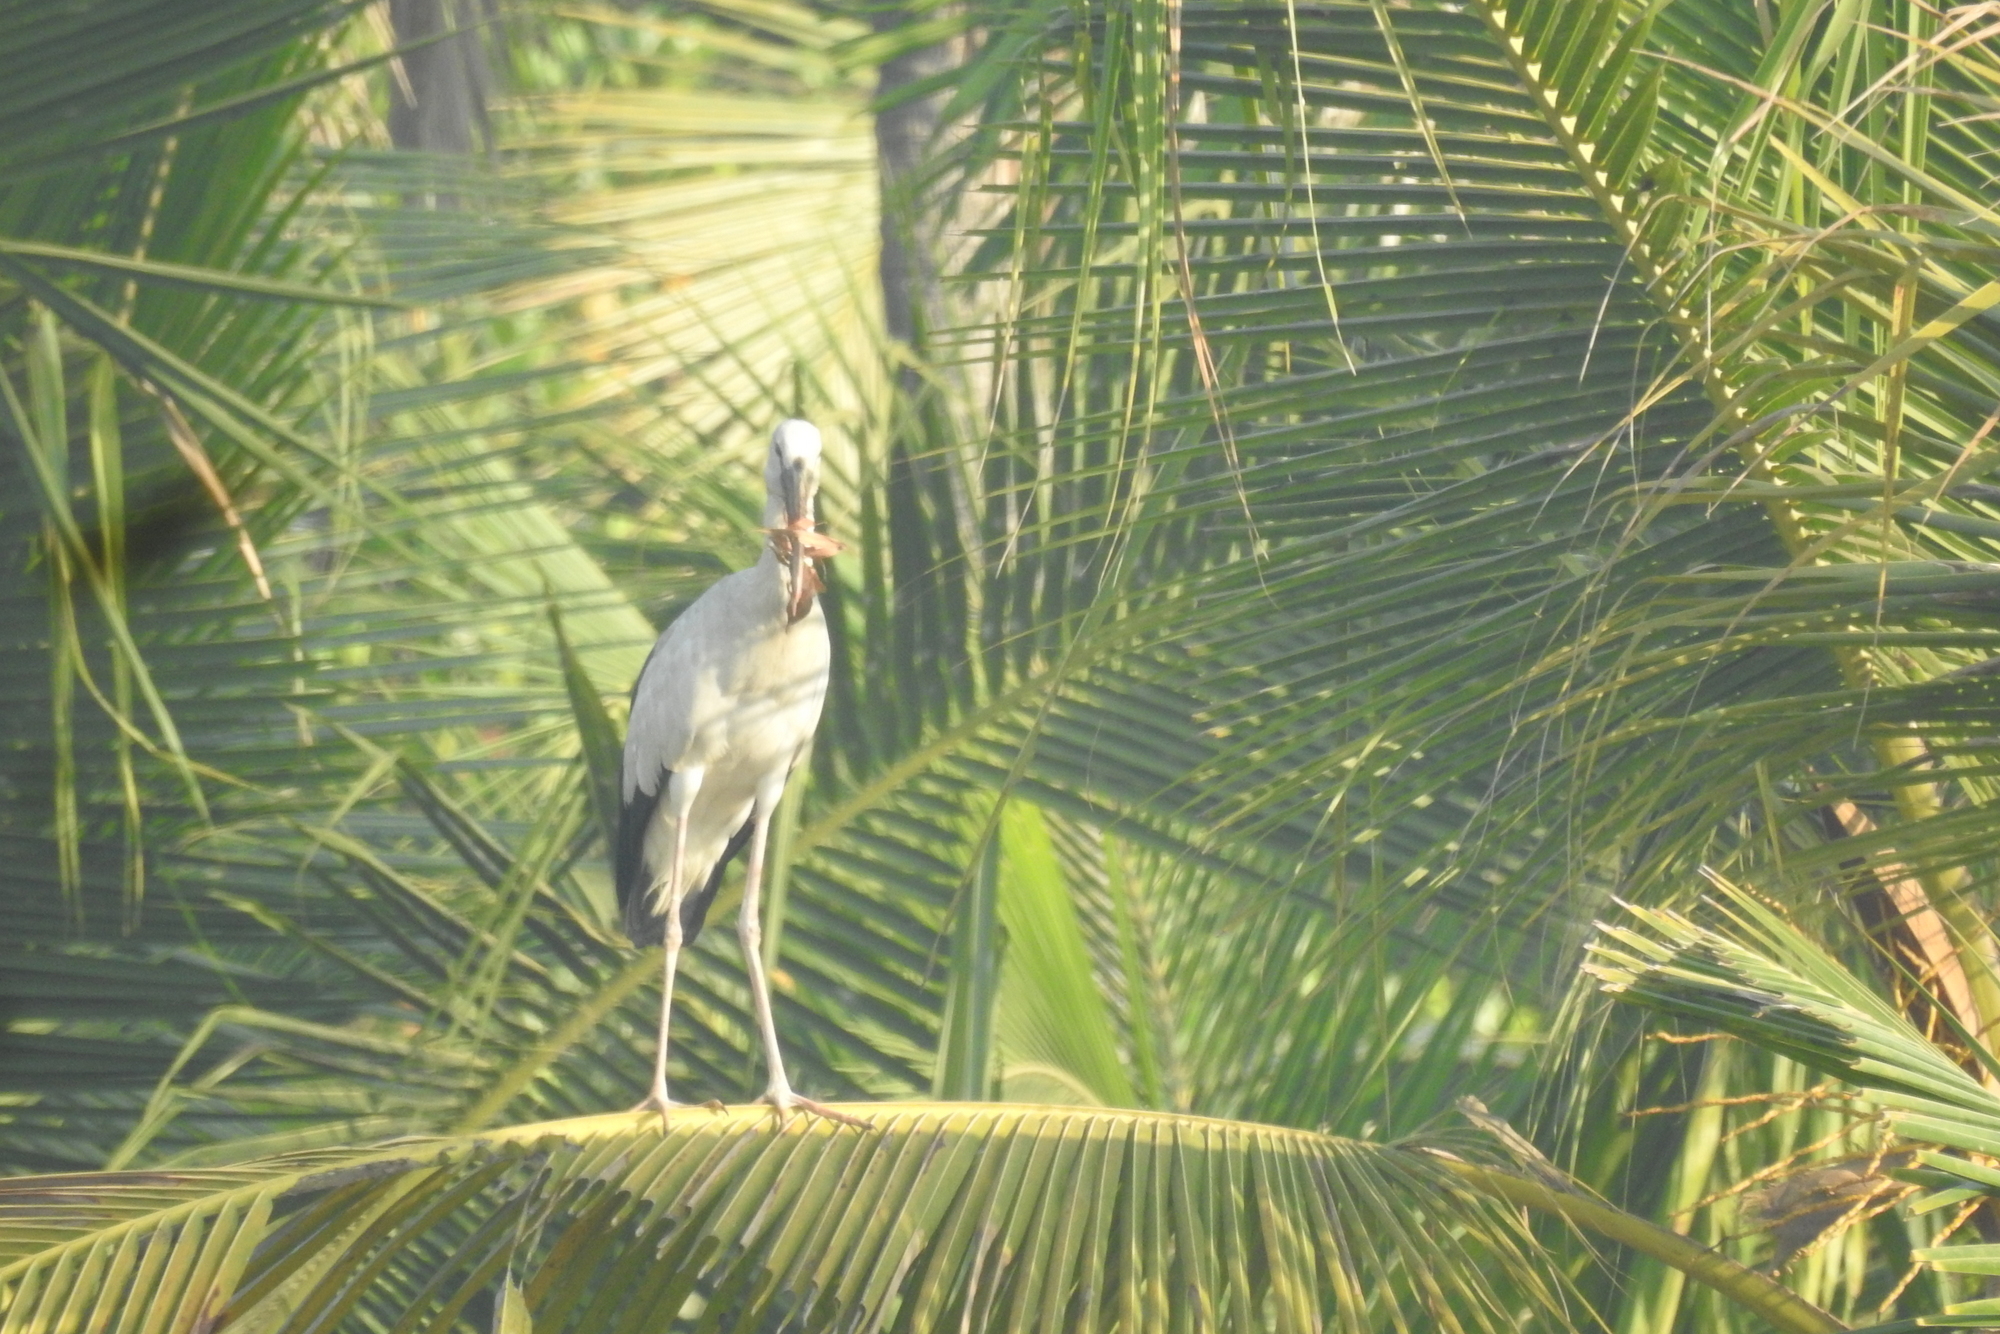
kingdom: Animalia
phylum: Chordata
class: Aves
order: Ciconiiformes
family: Ciconiidae
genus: Anastomus
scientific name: Anastomus oscitans
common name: Asian openbill
